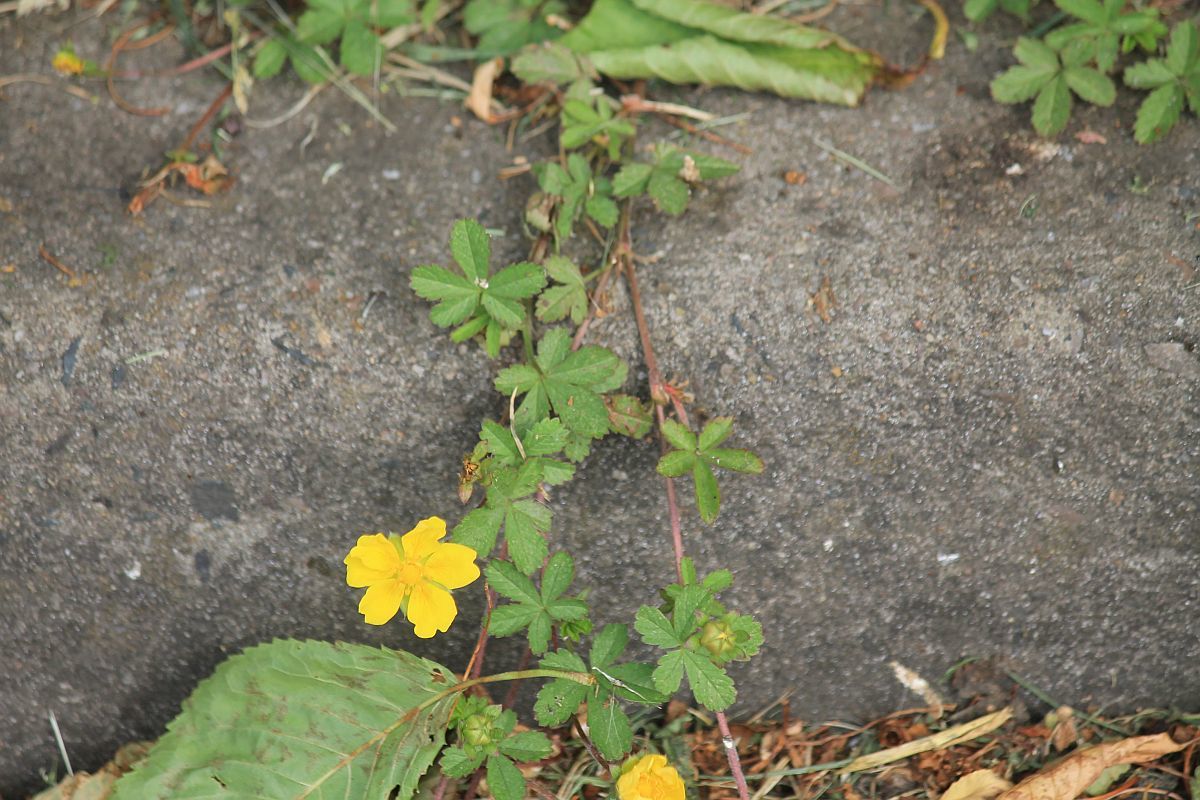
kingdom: Plantae
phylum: Tracheophyta
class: Magnoliopsida
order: Rosales
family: Rosaceae
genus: Potentilla
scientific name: Potentilla reptans
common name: Creeping cinquefoil
